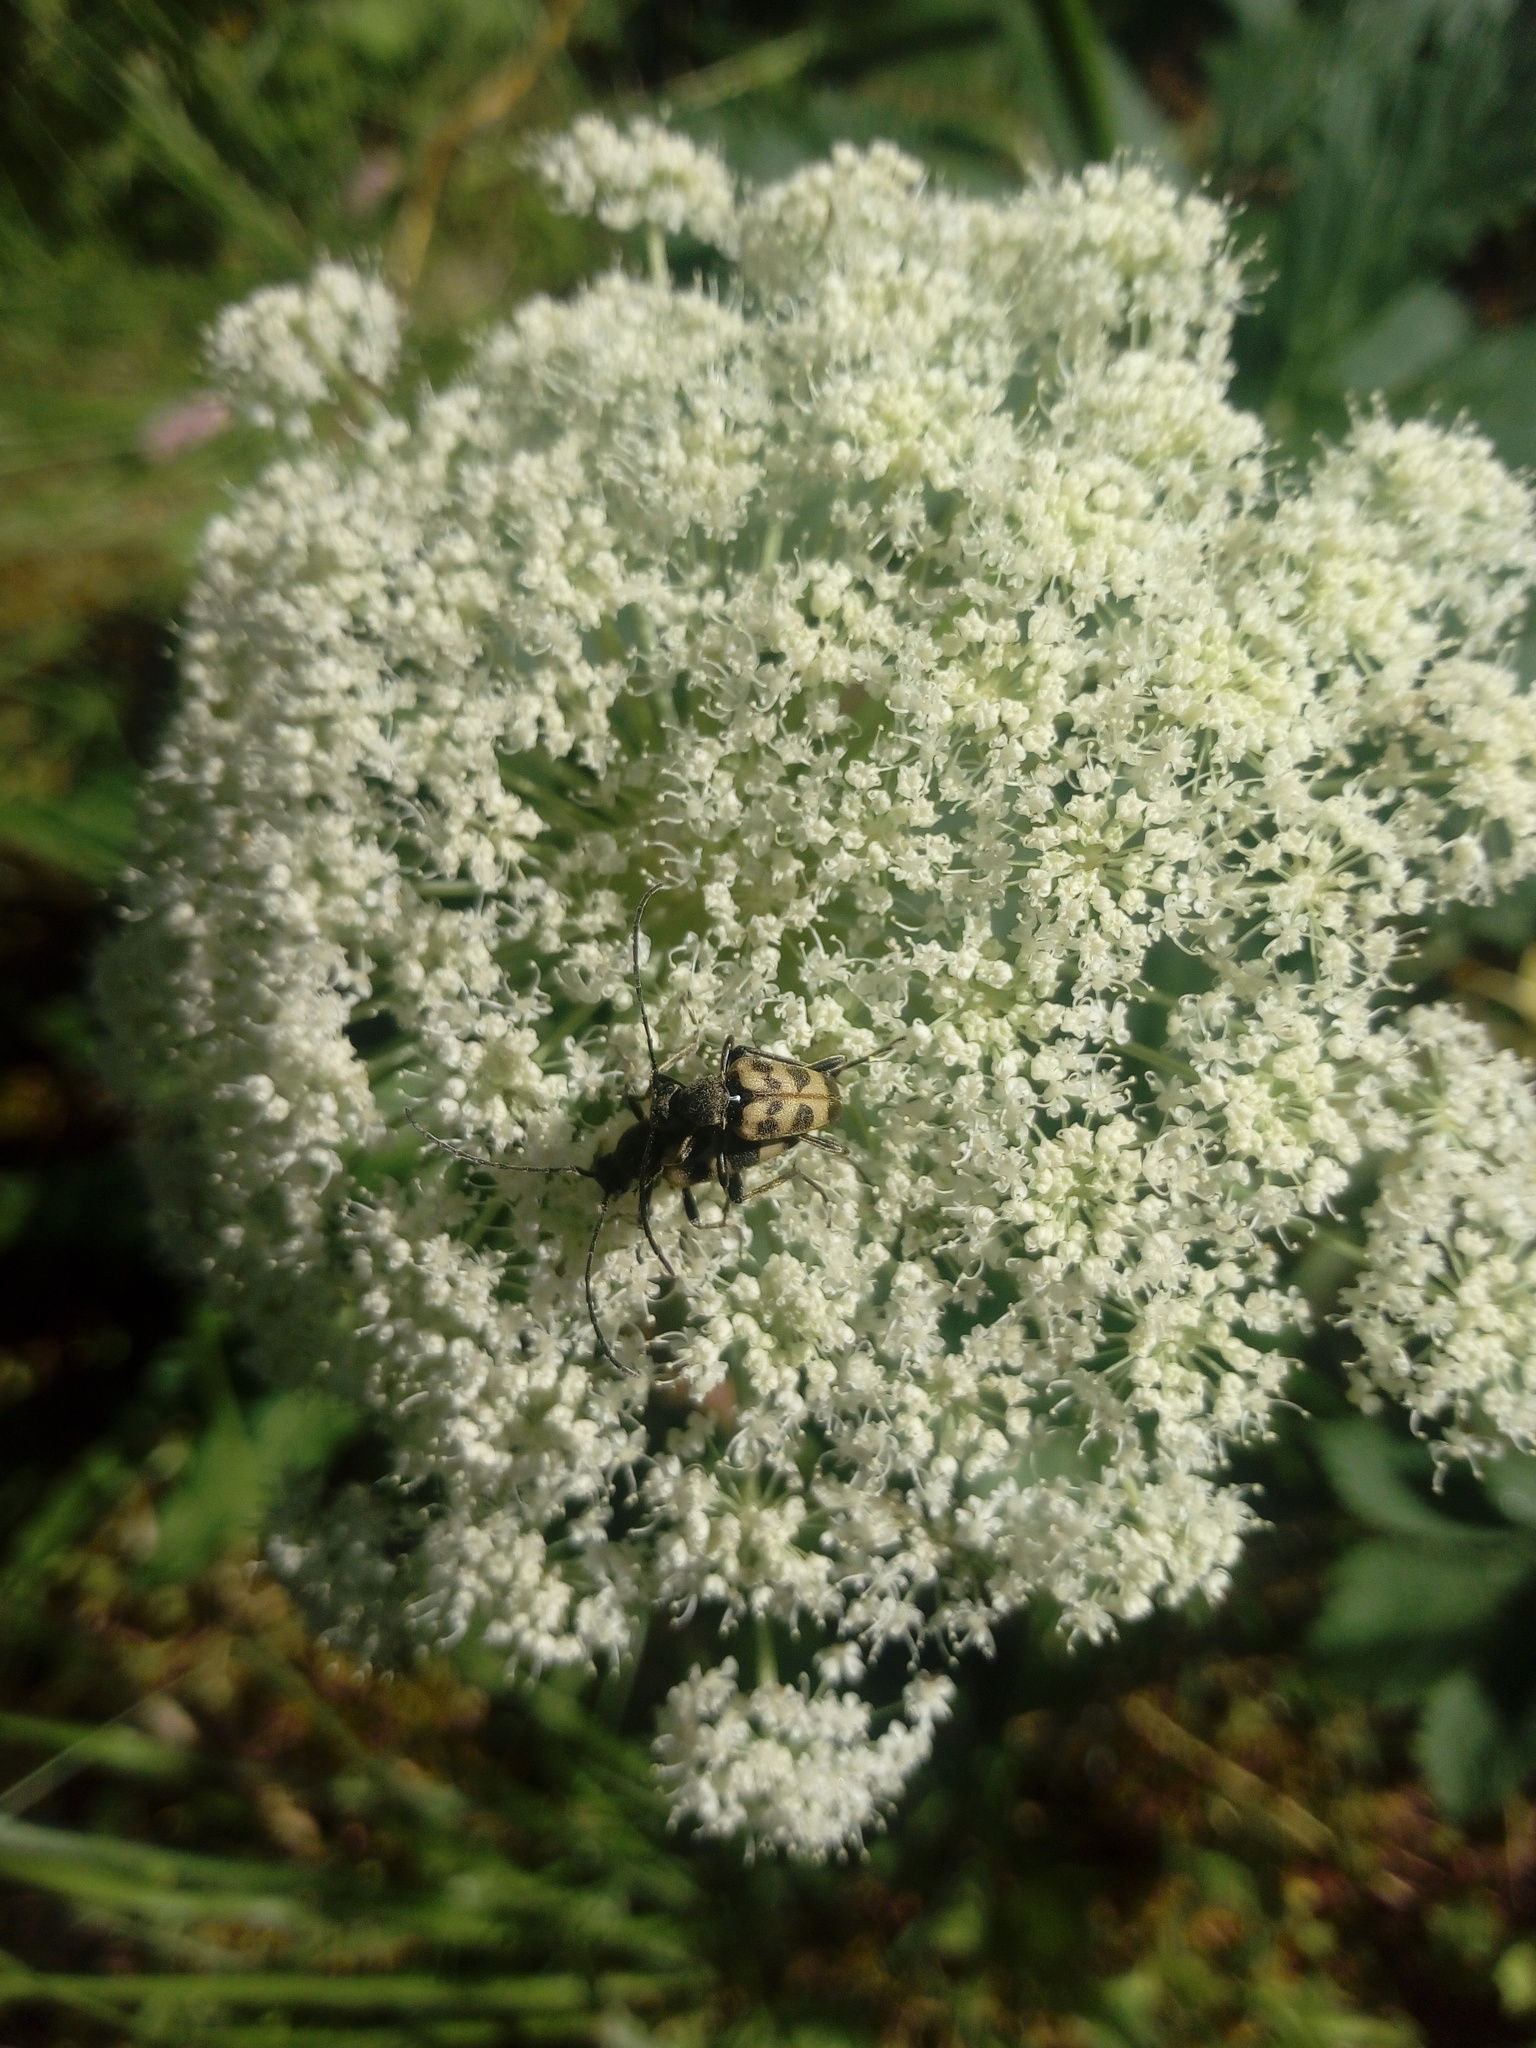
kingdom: Animalia
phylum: Arthropoda
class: Insecta
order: Coleoptera
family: Cerambycidae
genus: Pachytodes
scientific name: Pachytodes cerambyciformis
